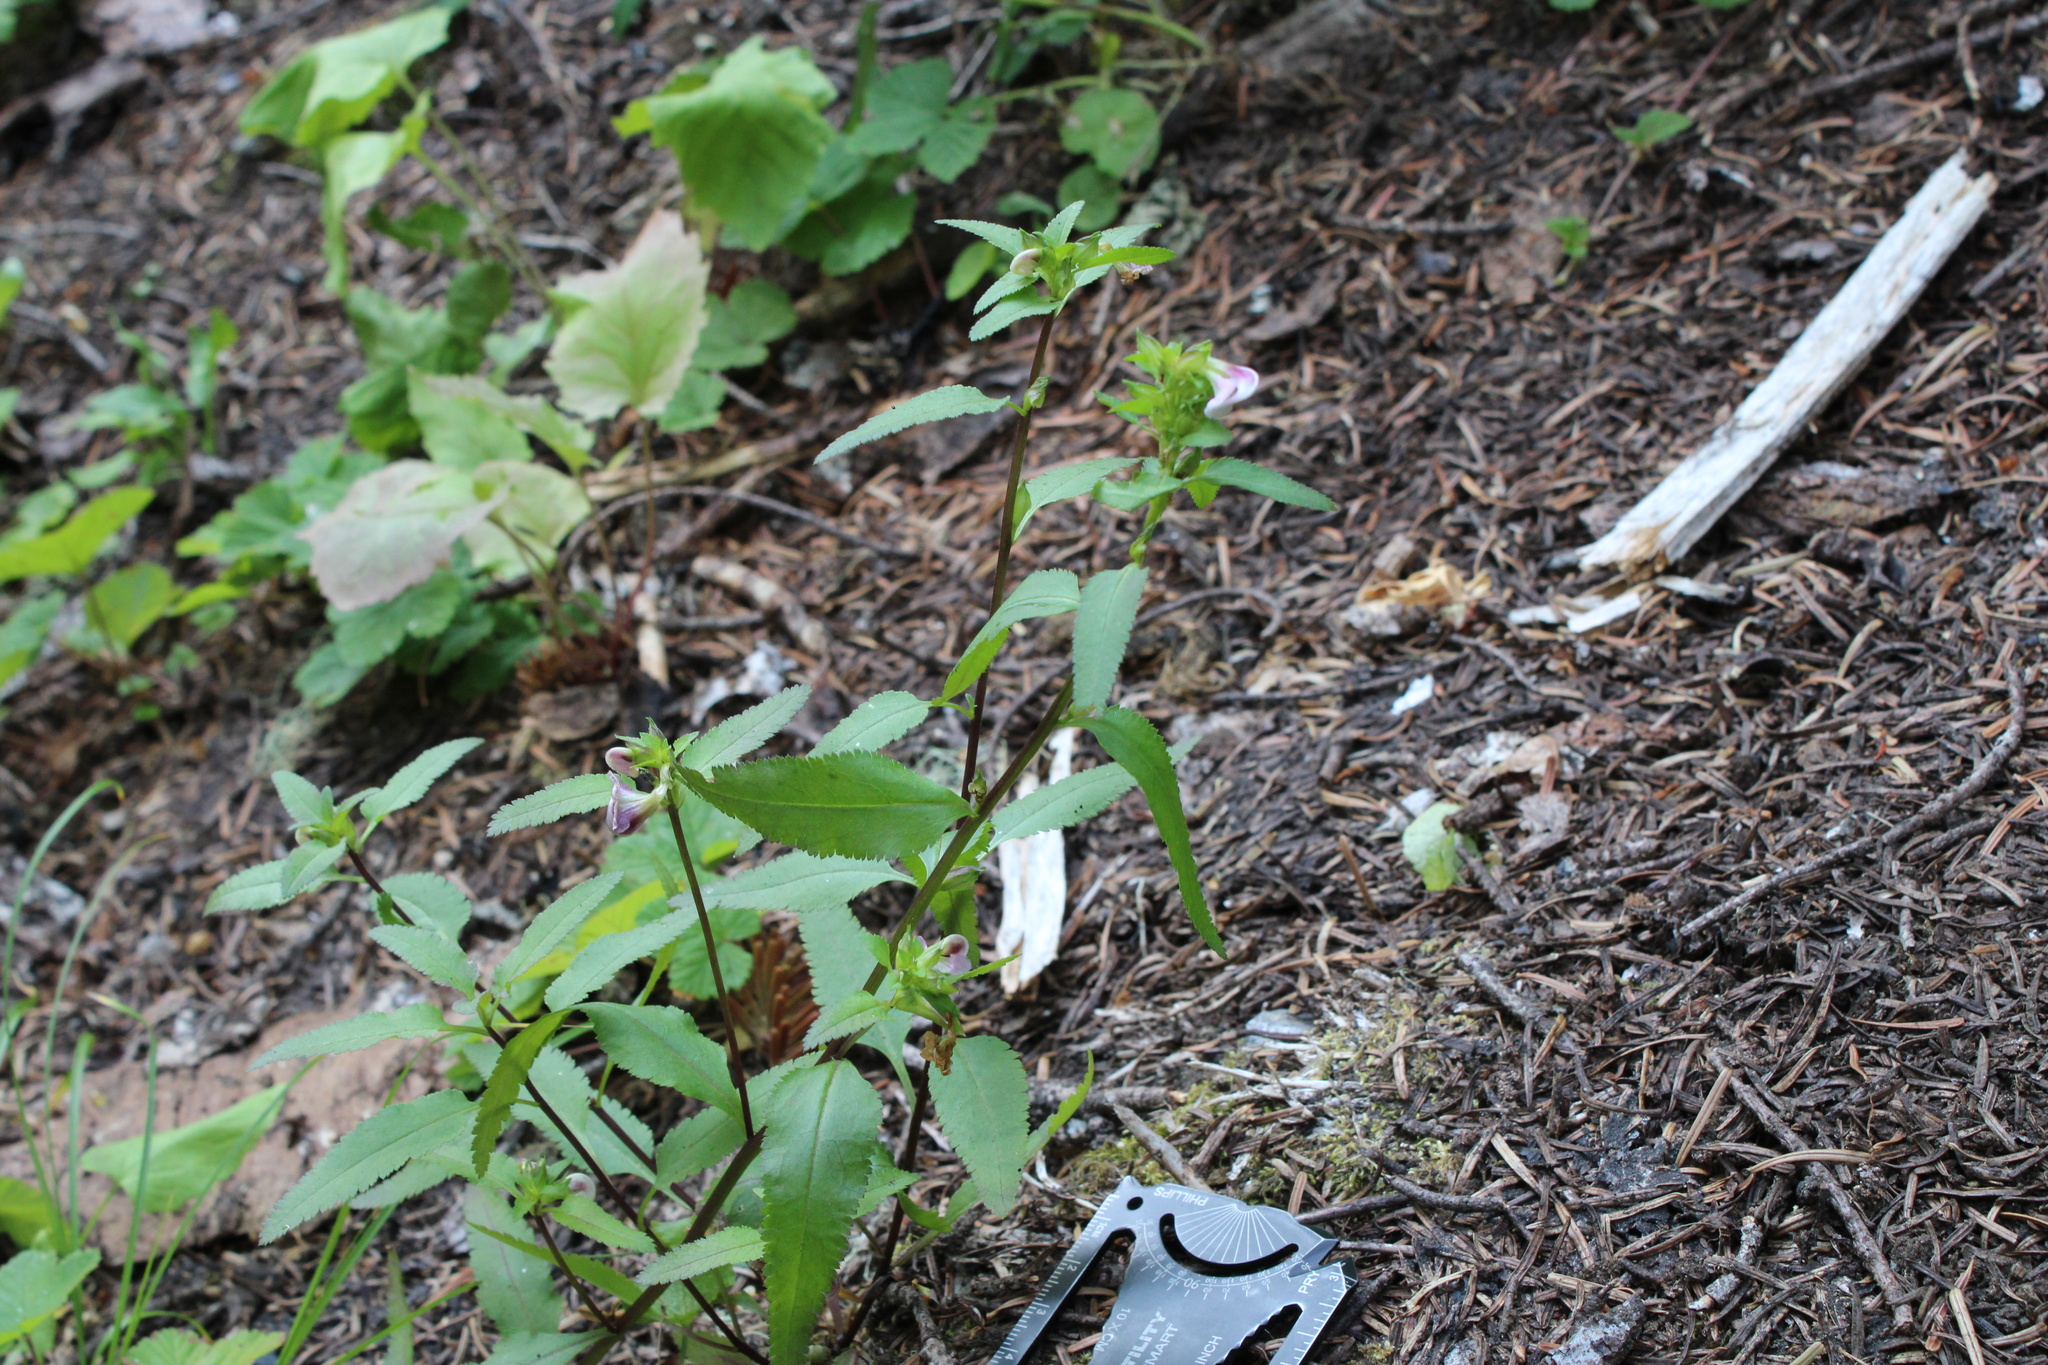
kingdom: Plantae
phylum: Tracheophyta
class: Magnoliopsida
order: Lamiales
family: Orobanchaceae
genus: Pedicularis
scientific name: Pedicularis racemosa
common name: Leafy lousewort
